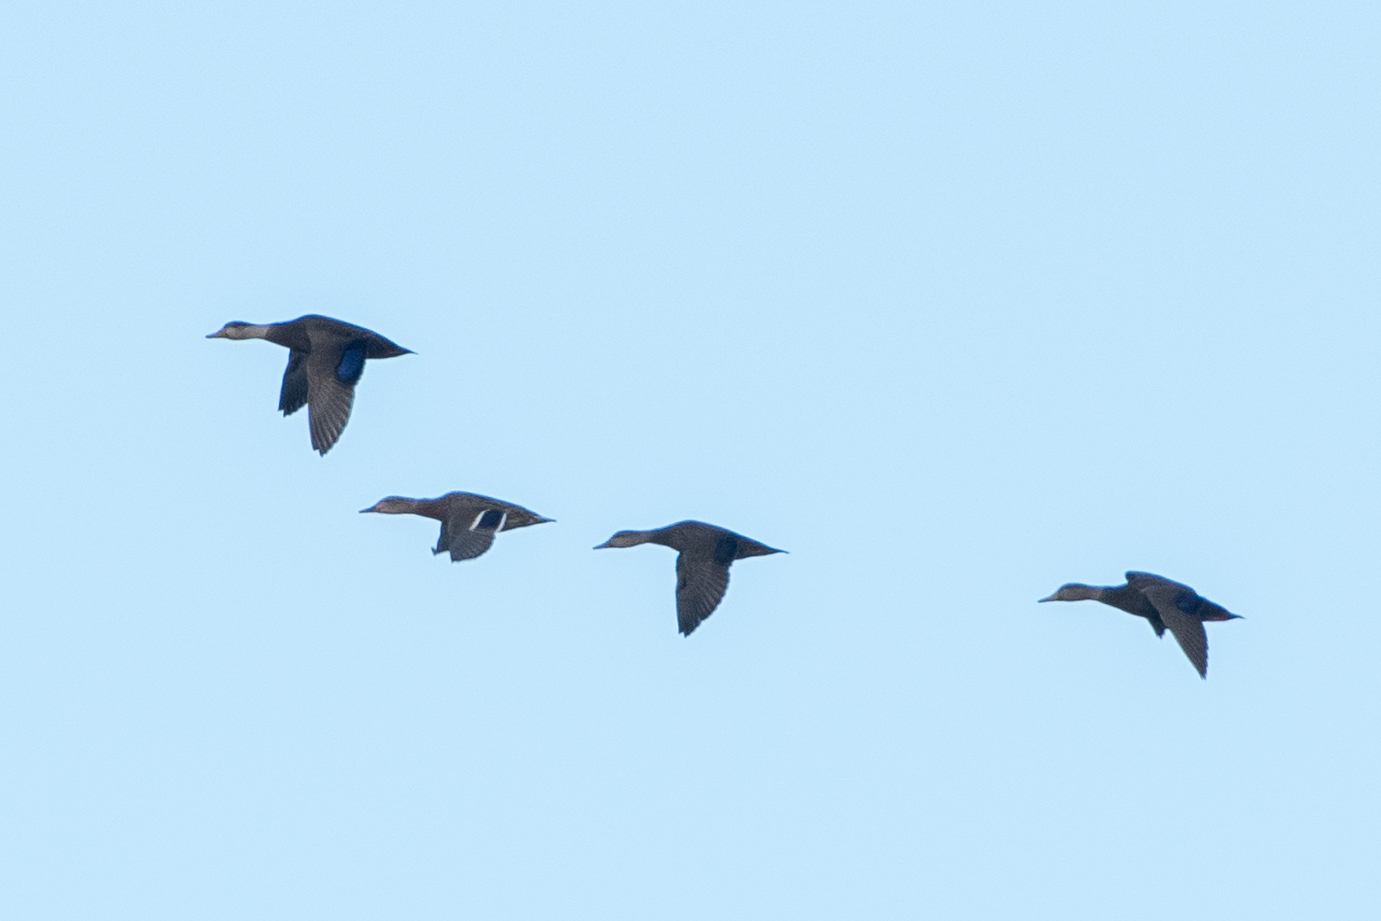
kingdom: Animalia
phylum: Chordata
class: Aves
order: Anseriformes
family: Anatidae
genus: Anas
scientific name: Anas rubripes
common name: American black duck
